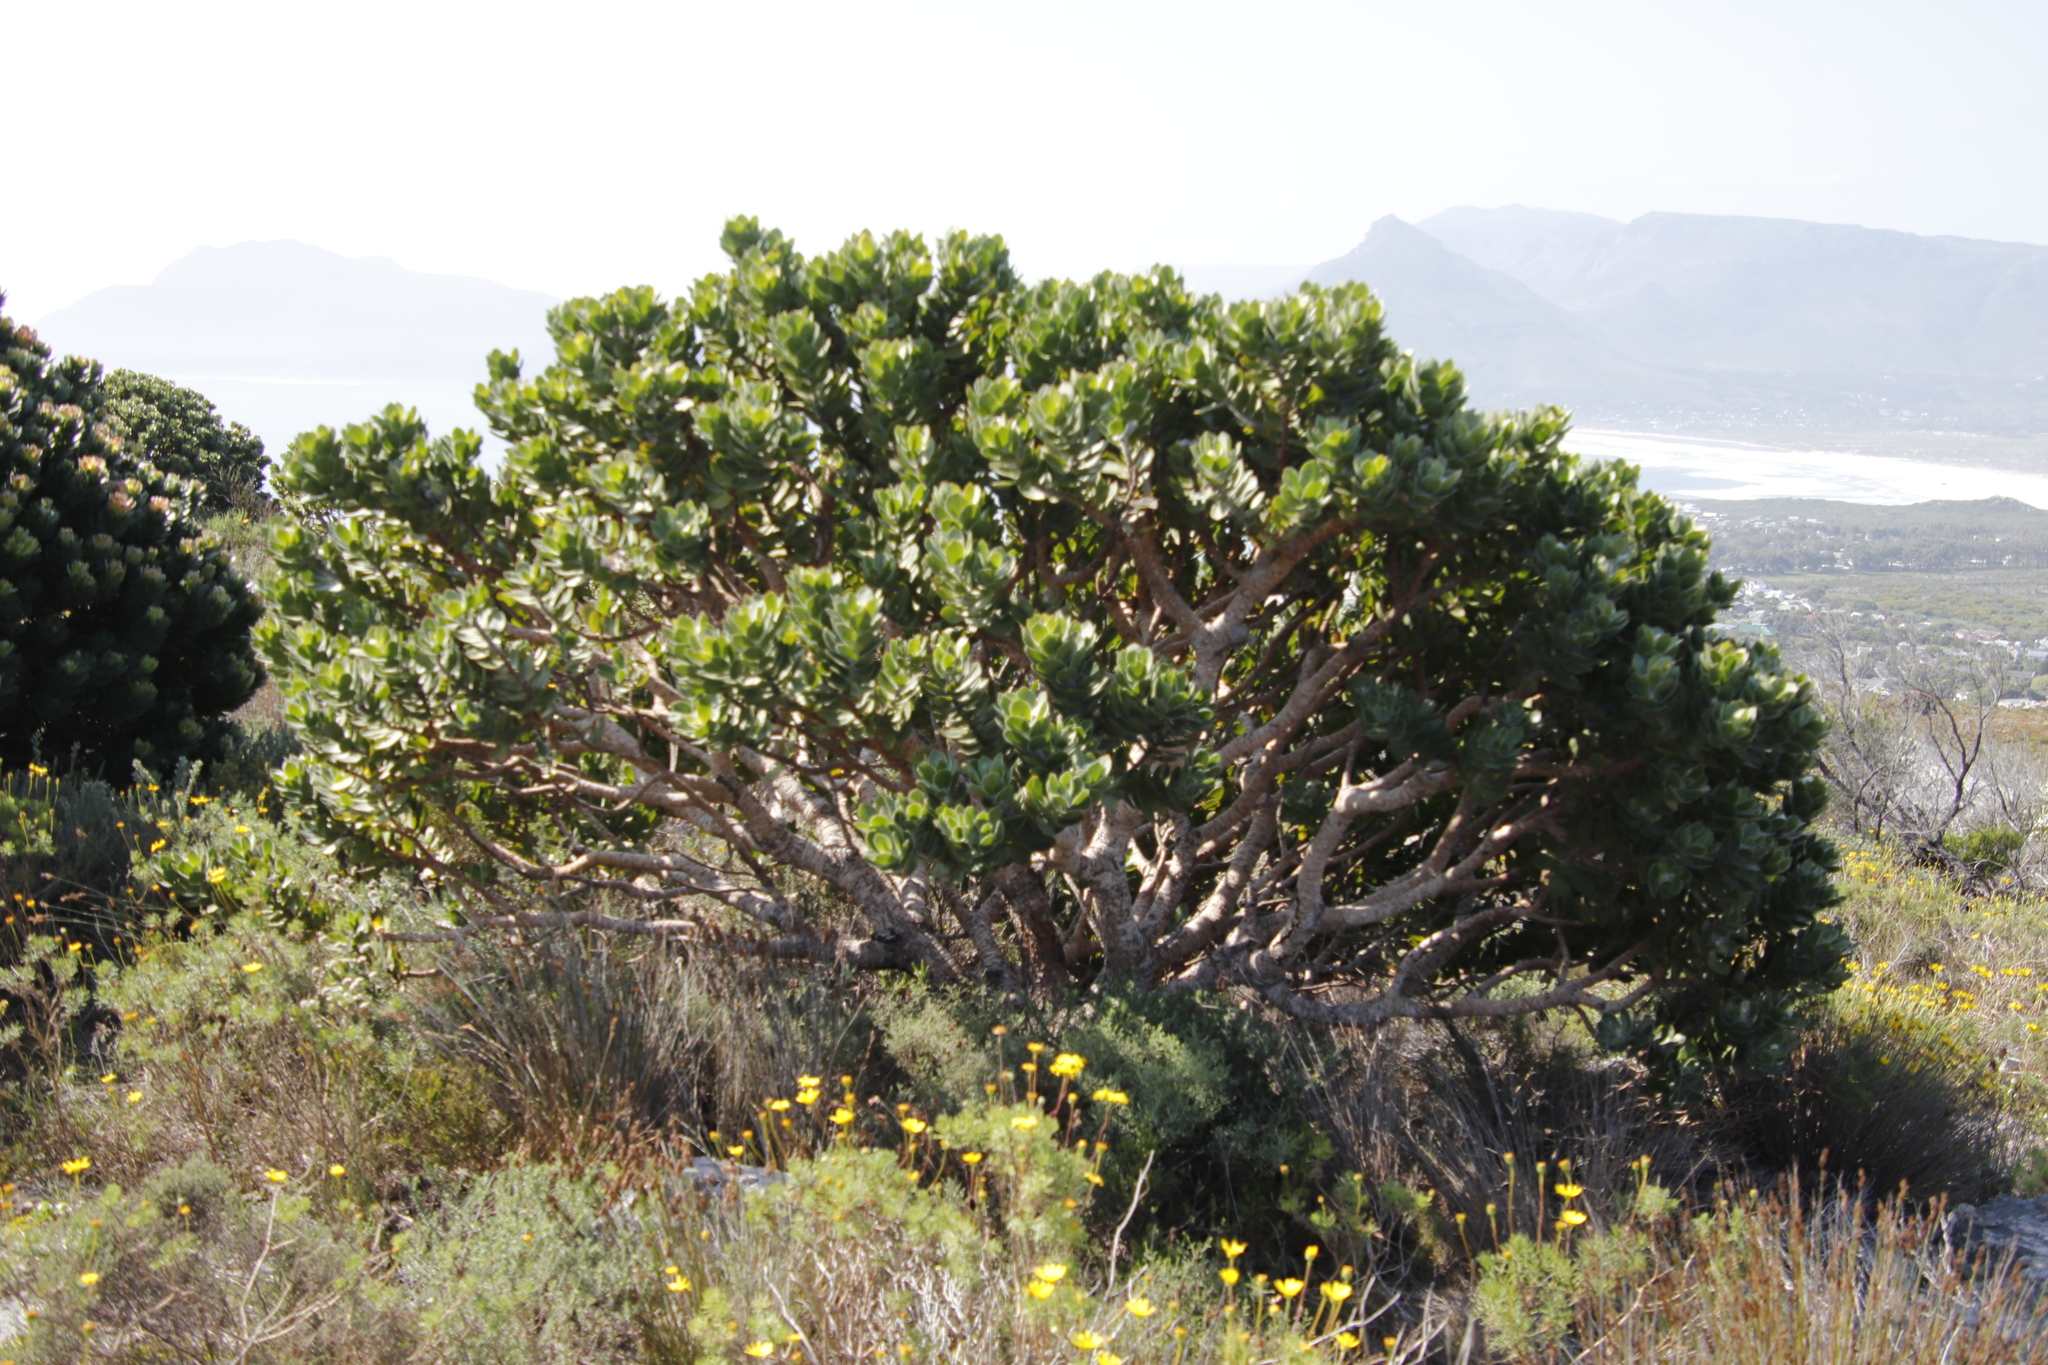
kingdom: Plantae
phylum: Tracheophyta
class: Magnoliopsida
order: Proteales
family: Proteaceae
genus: Leucospermum
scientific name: Leucospermum conocarpodendron
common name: Tree pincushion
